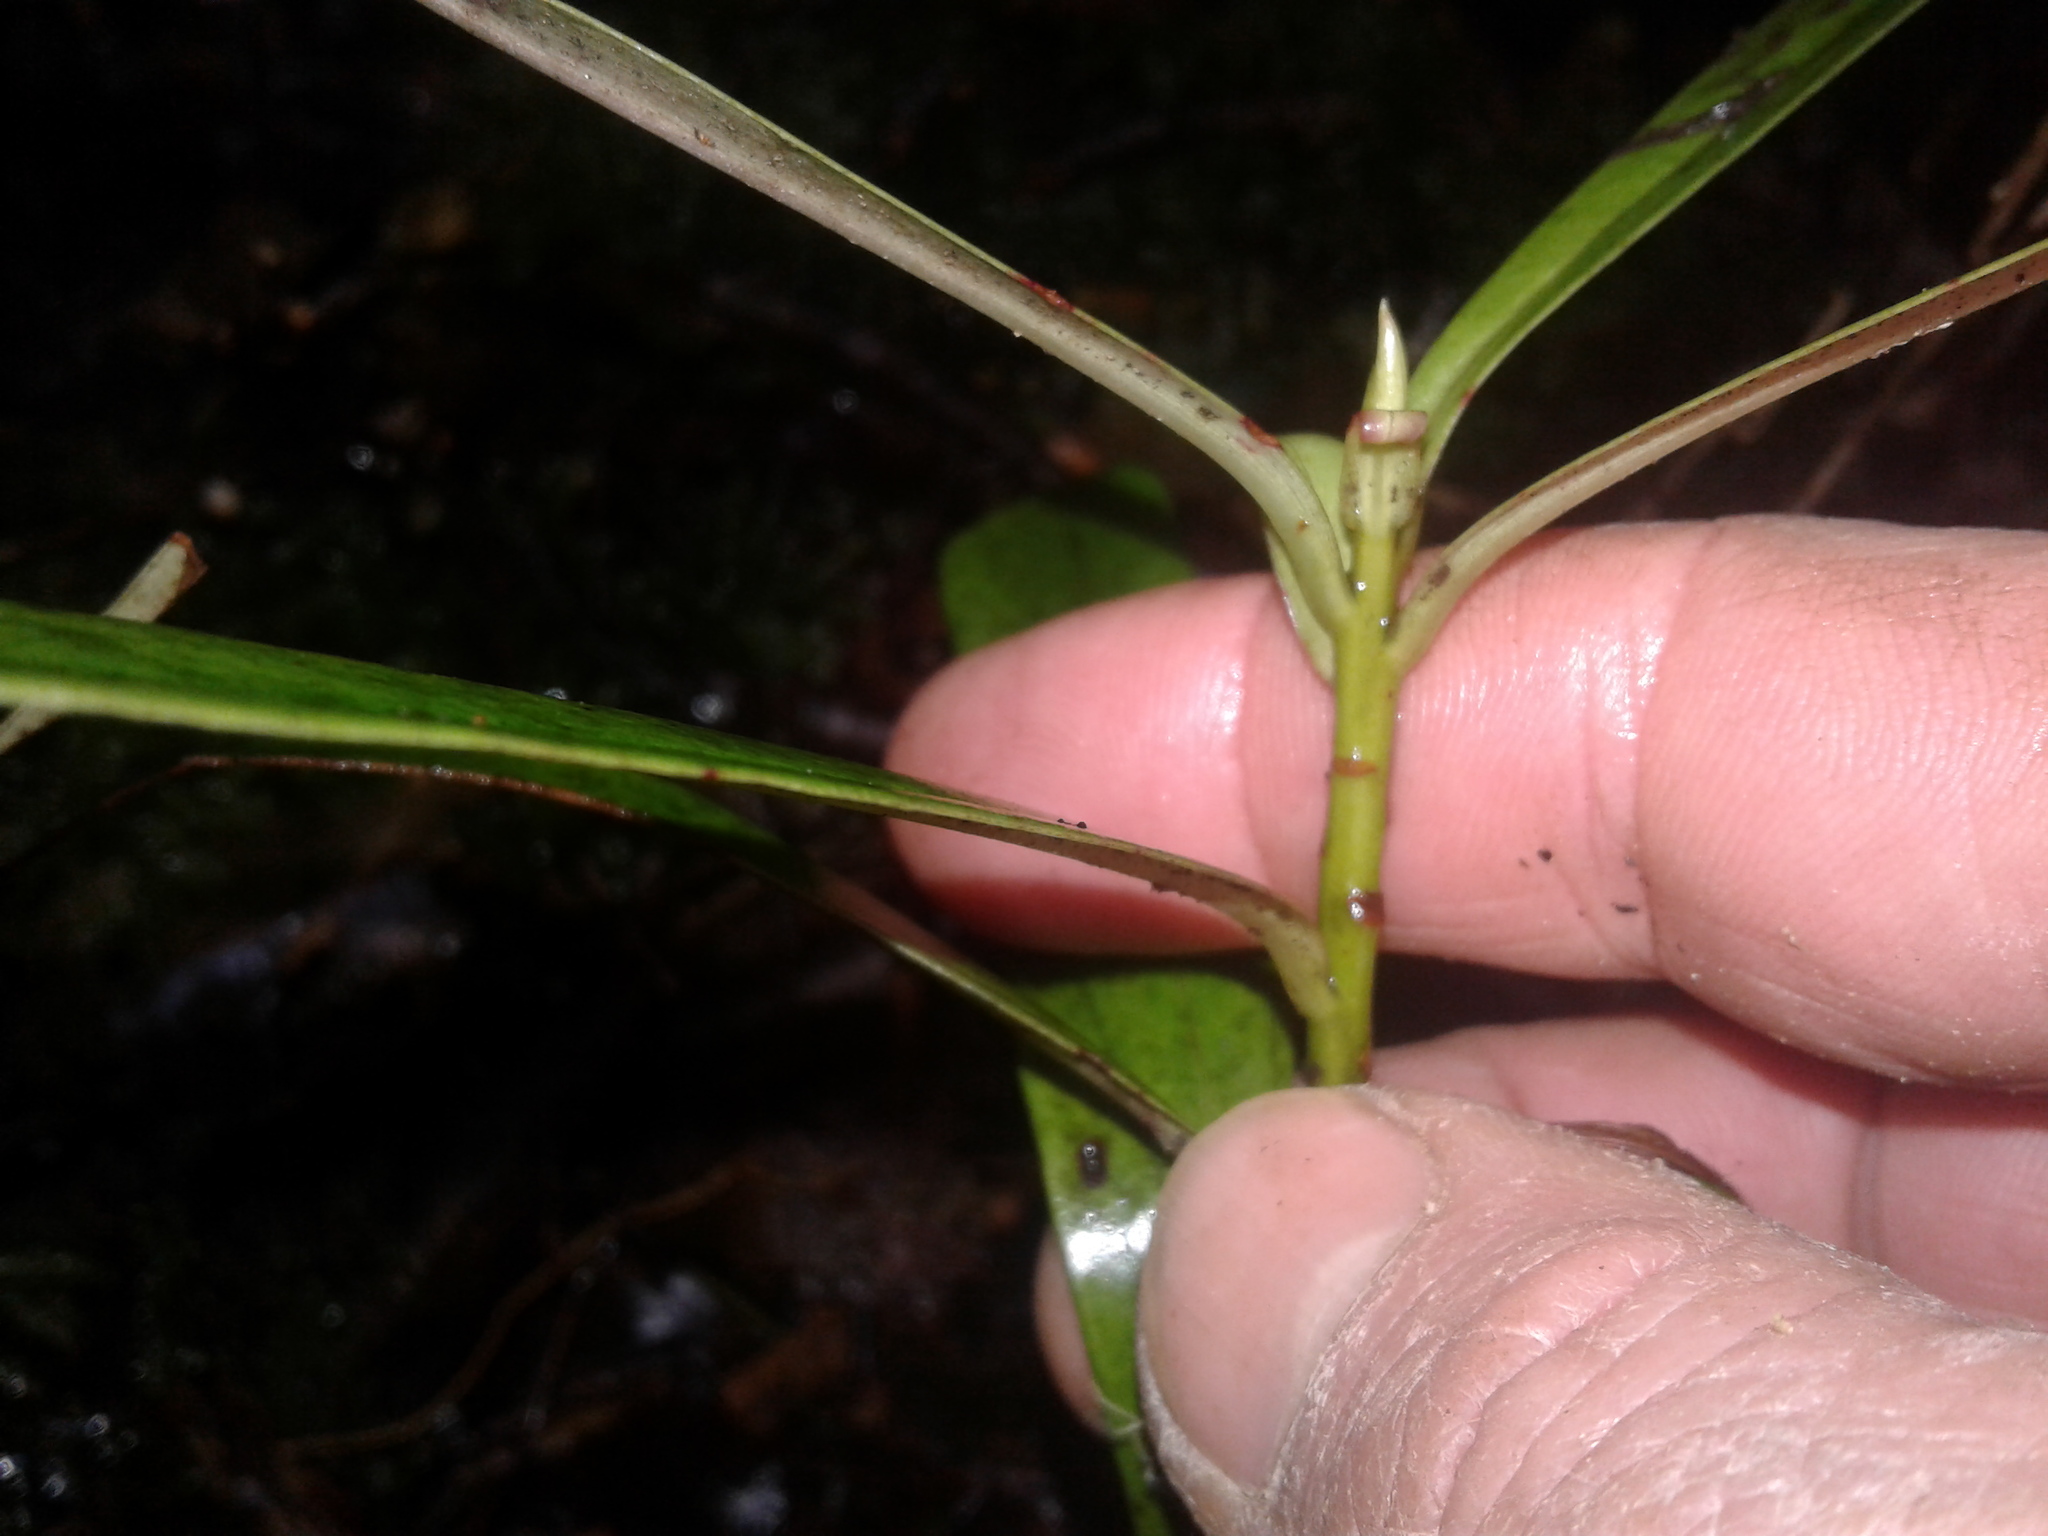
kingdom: Plantae
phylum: Tracheophyta
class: Magnoliopsida
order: Ericales
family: Primulaceae
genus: Myrsine
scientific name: Myrsine salicina
